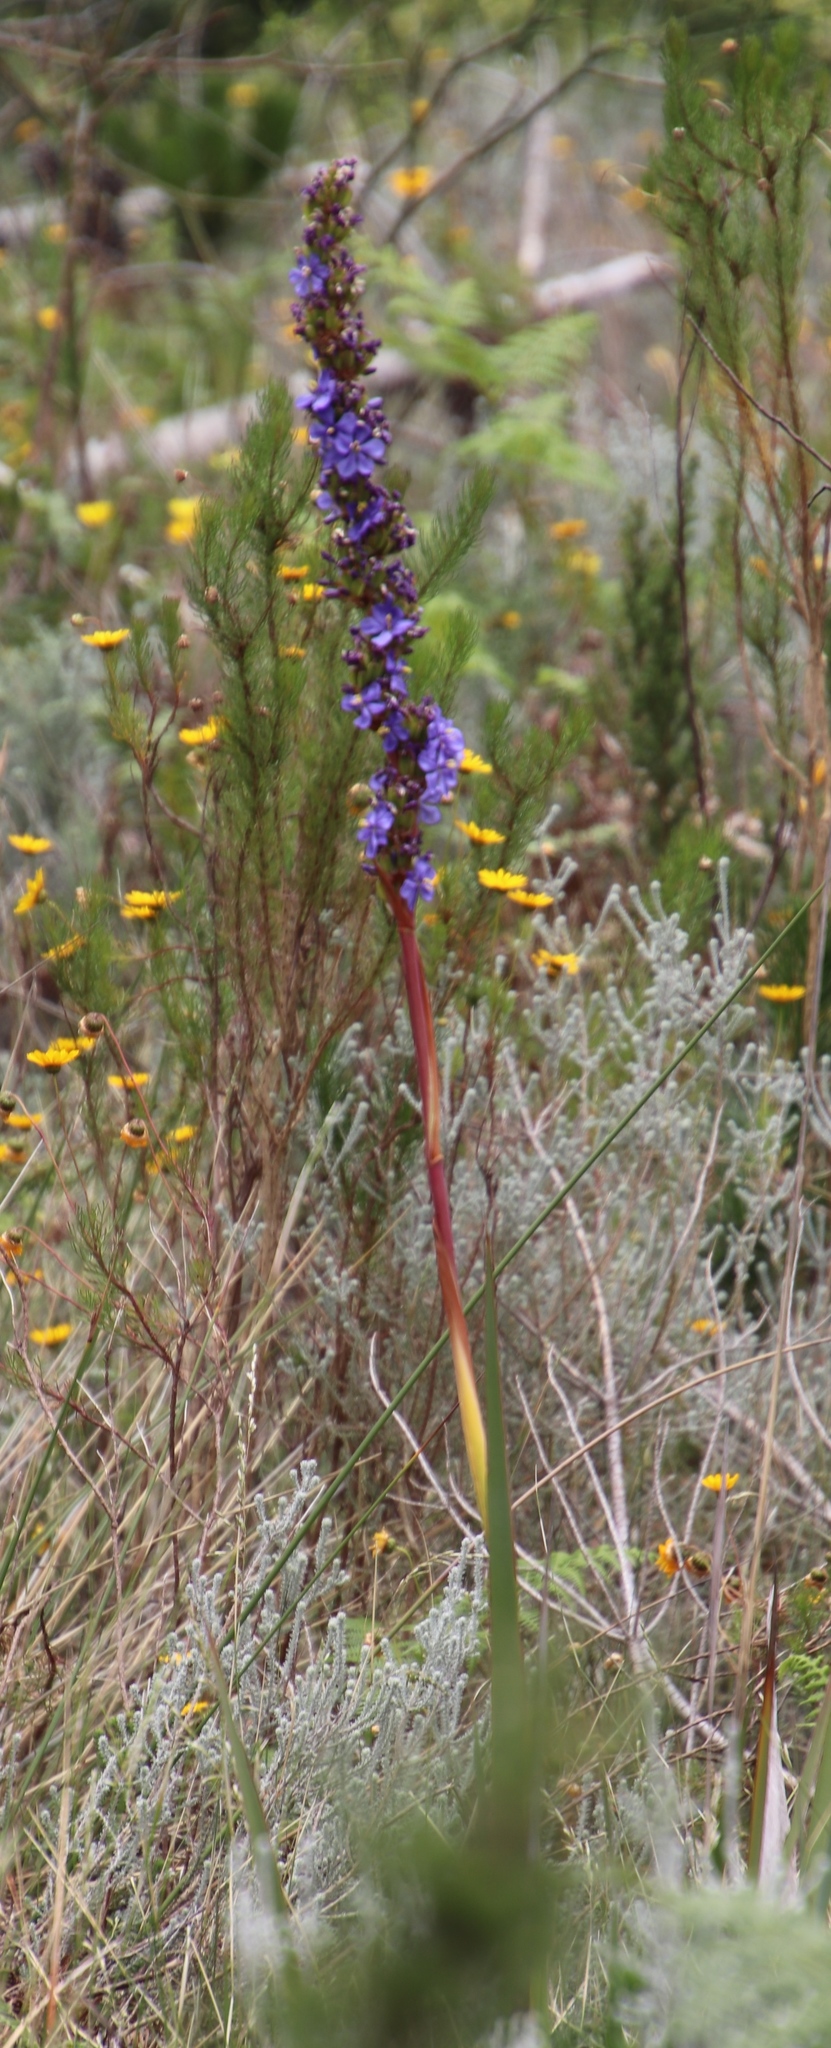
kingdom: Plantae
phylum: Tracheophyta
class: Liliopsida
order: Asparagales
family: Iridaceae
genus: Aristea
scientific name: Aristea capitata
